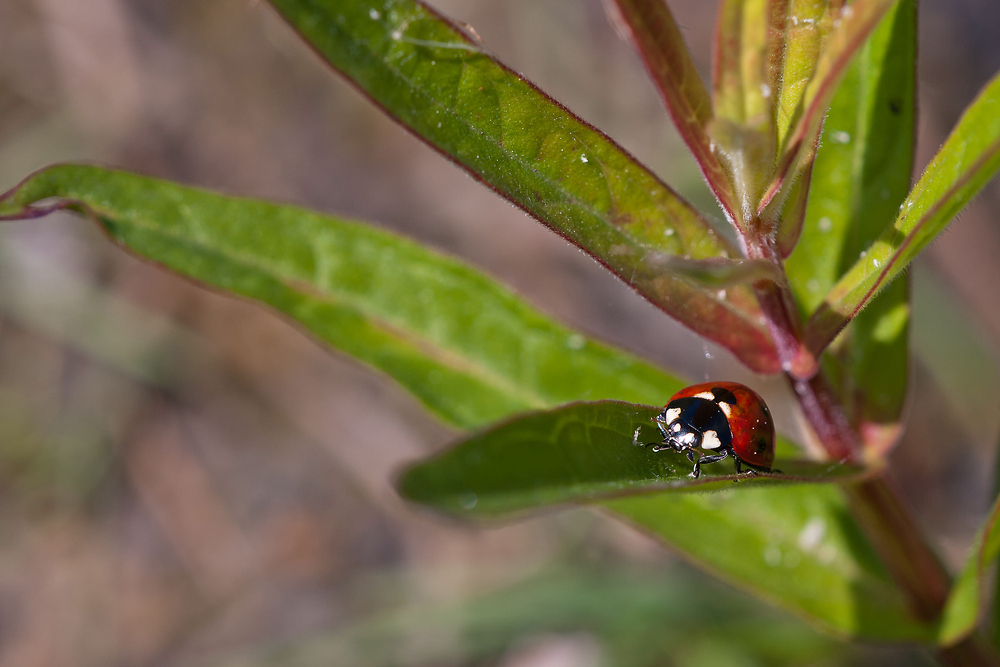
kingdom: Animalia
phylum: Arthropoda
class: Insecta
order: Coleoptera
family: Coccinellidae
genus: Coccinella
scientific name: Coccinella septempunctata
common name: Sevenspotted lady beetle
